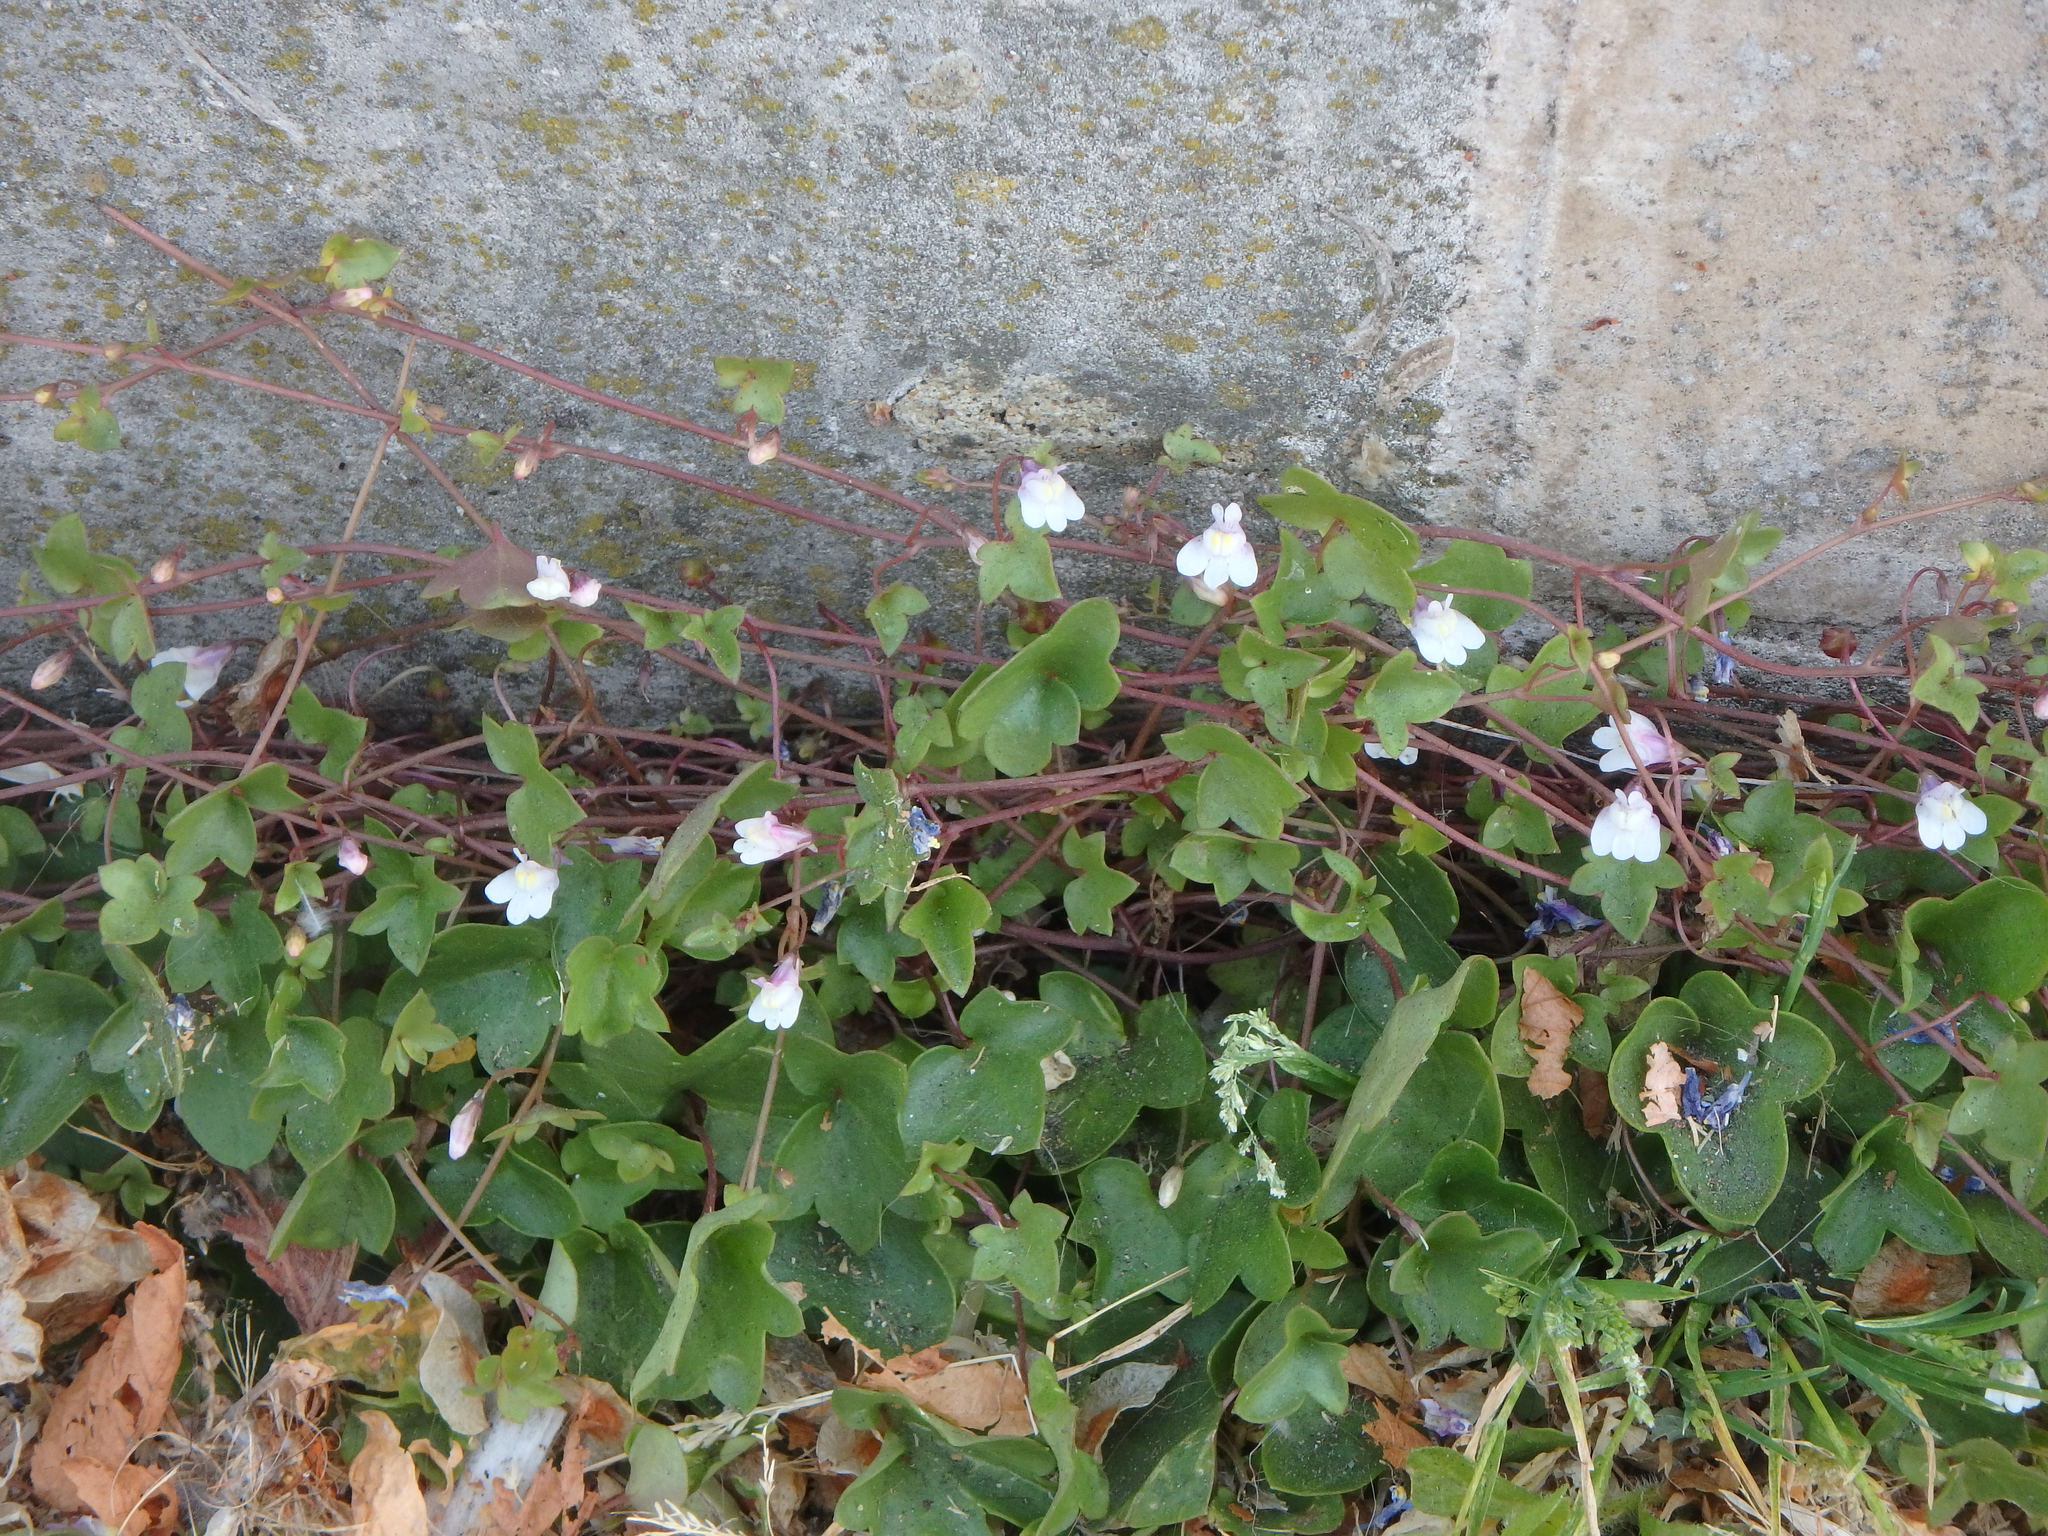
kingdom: Plantae
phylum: Tracheophyta
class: Magnoliopsida
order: Lamiales
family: Plantaginaceae
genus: Cymbalaria
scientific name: Cymbalaria muralis
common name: Ivy-leaved toadflax
